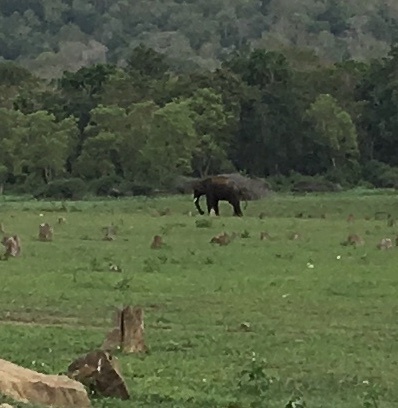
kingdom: Animalia
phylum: Chordata
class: Mammalia
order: Proboscidea
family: Elephantidae
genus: Elephas
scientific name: Elephas maximus
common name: Asian elephant
